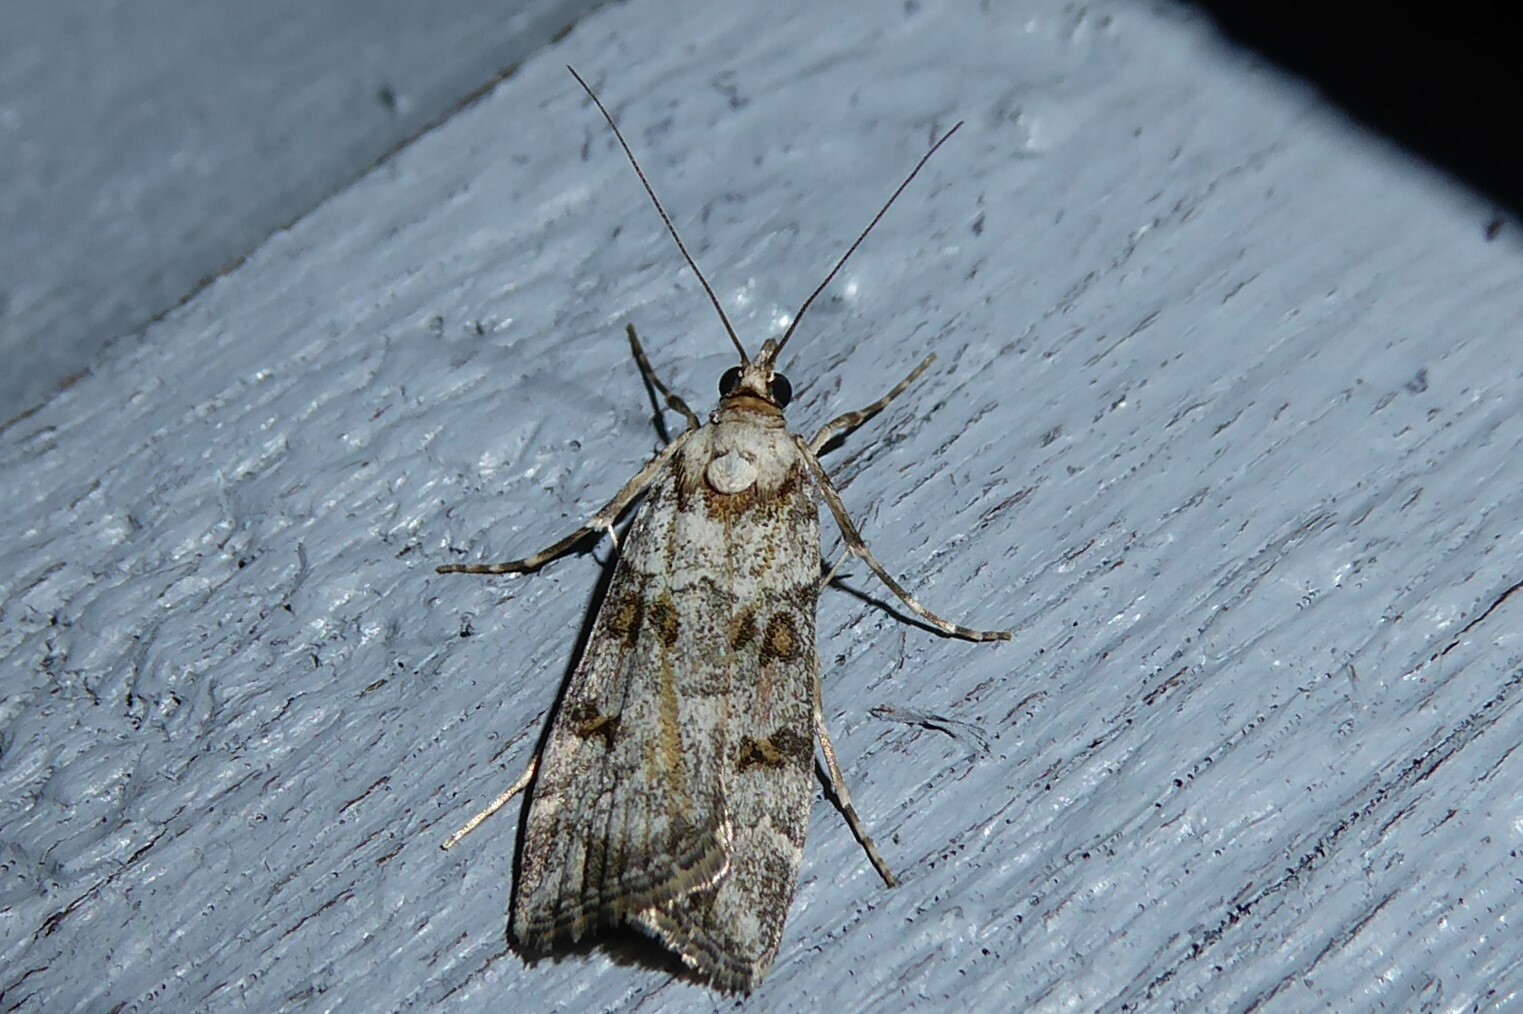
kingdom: Animalia
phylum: Arthropoda
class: Insecta
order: Lepidoptera
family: Crambidae
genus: Scoparia
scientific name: Scoparia tetracycla
